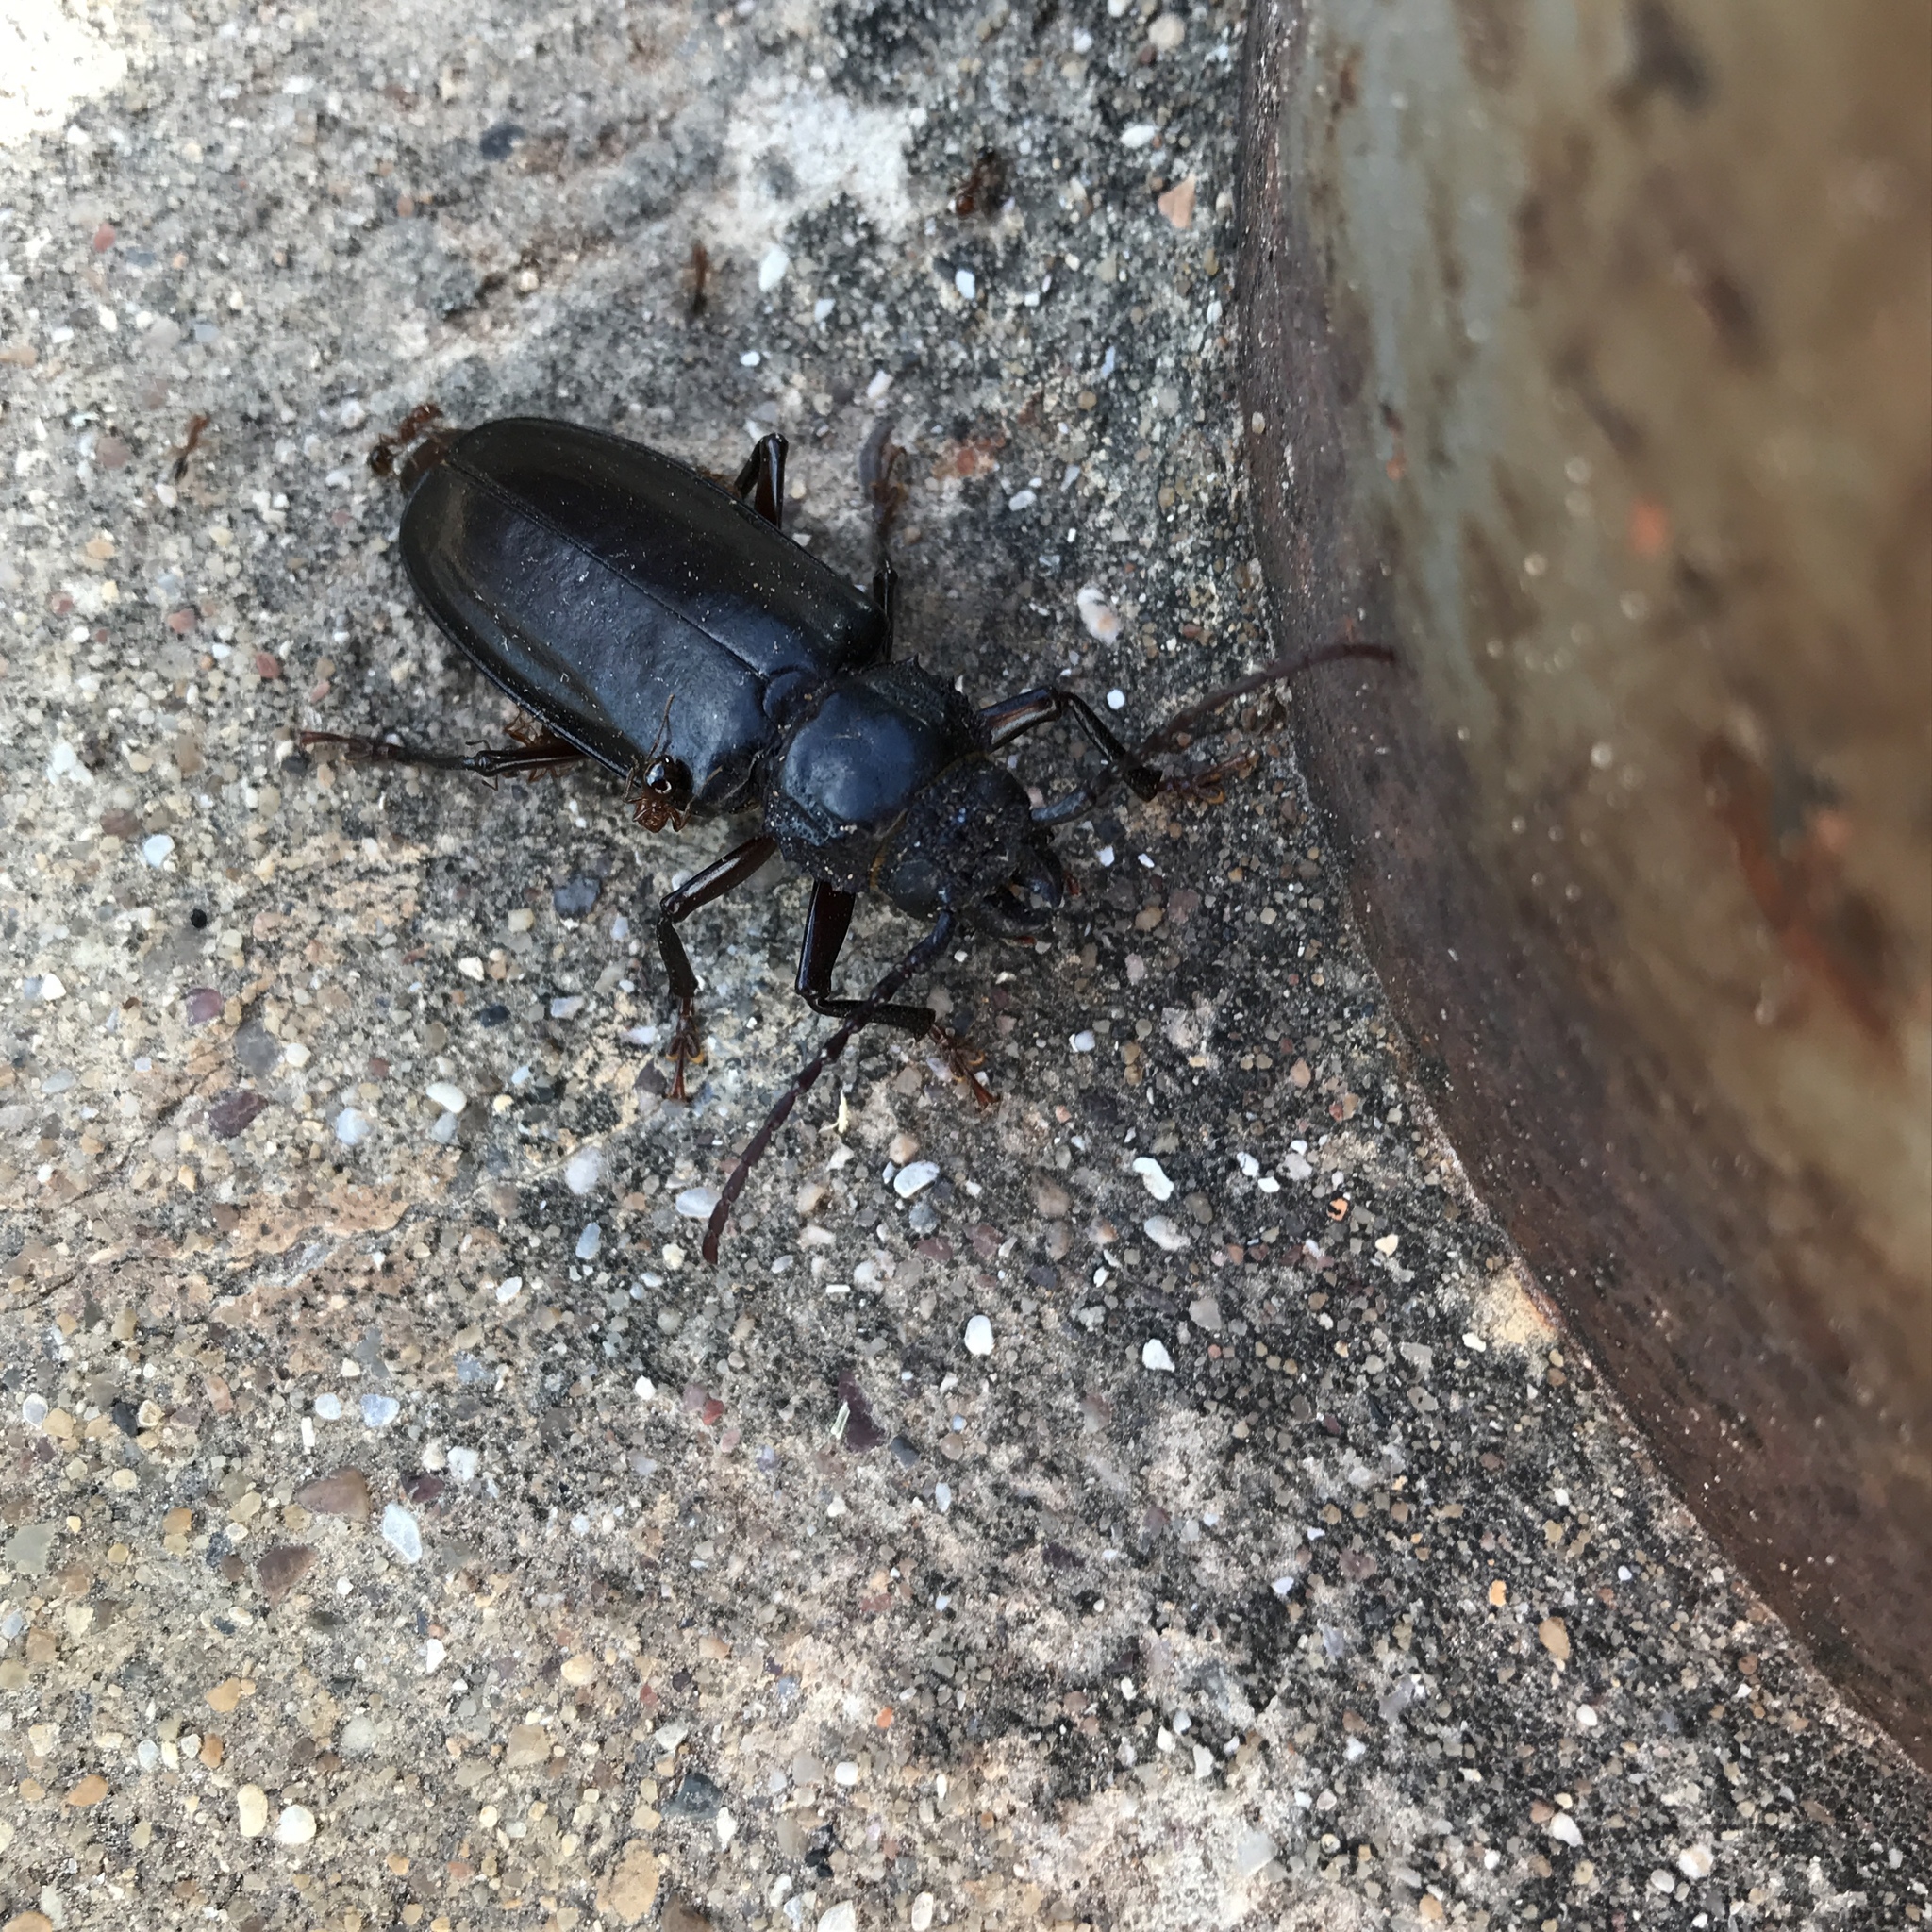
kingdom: Animalia
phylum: Arthropoda
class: Insecta
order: Coleoptera
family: Cerambycidae
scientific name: Cerambycidae
